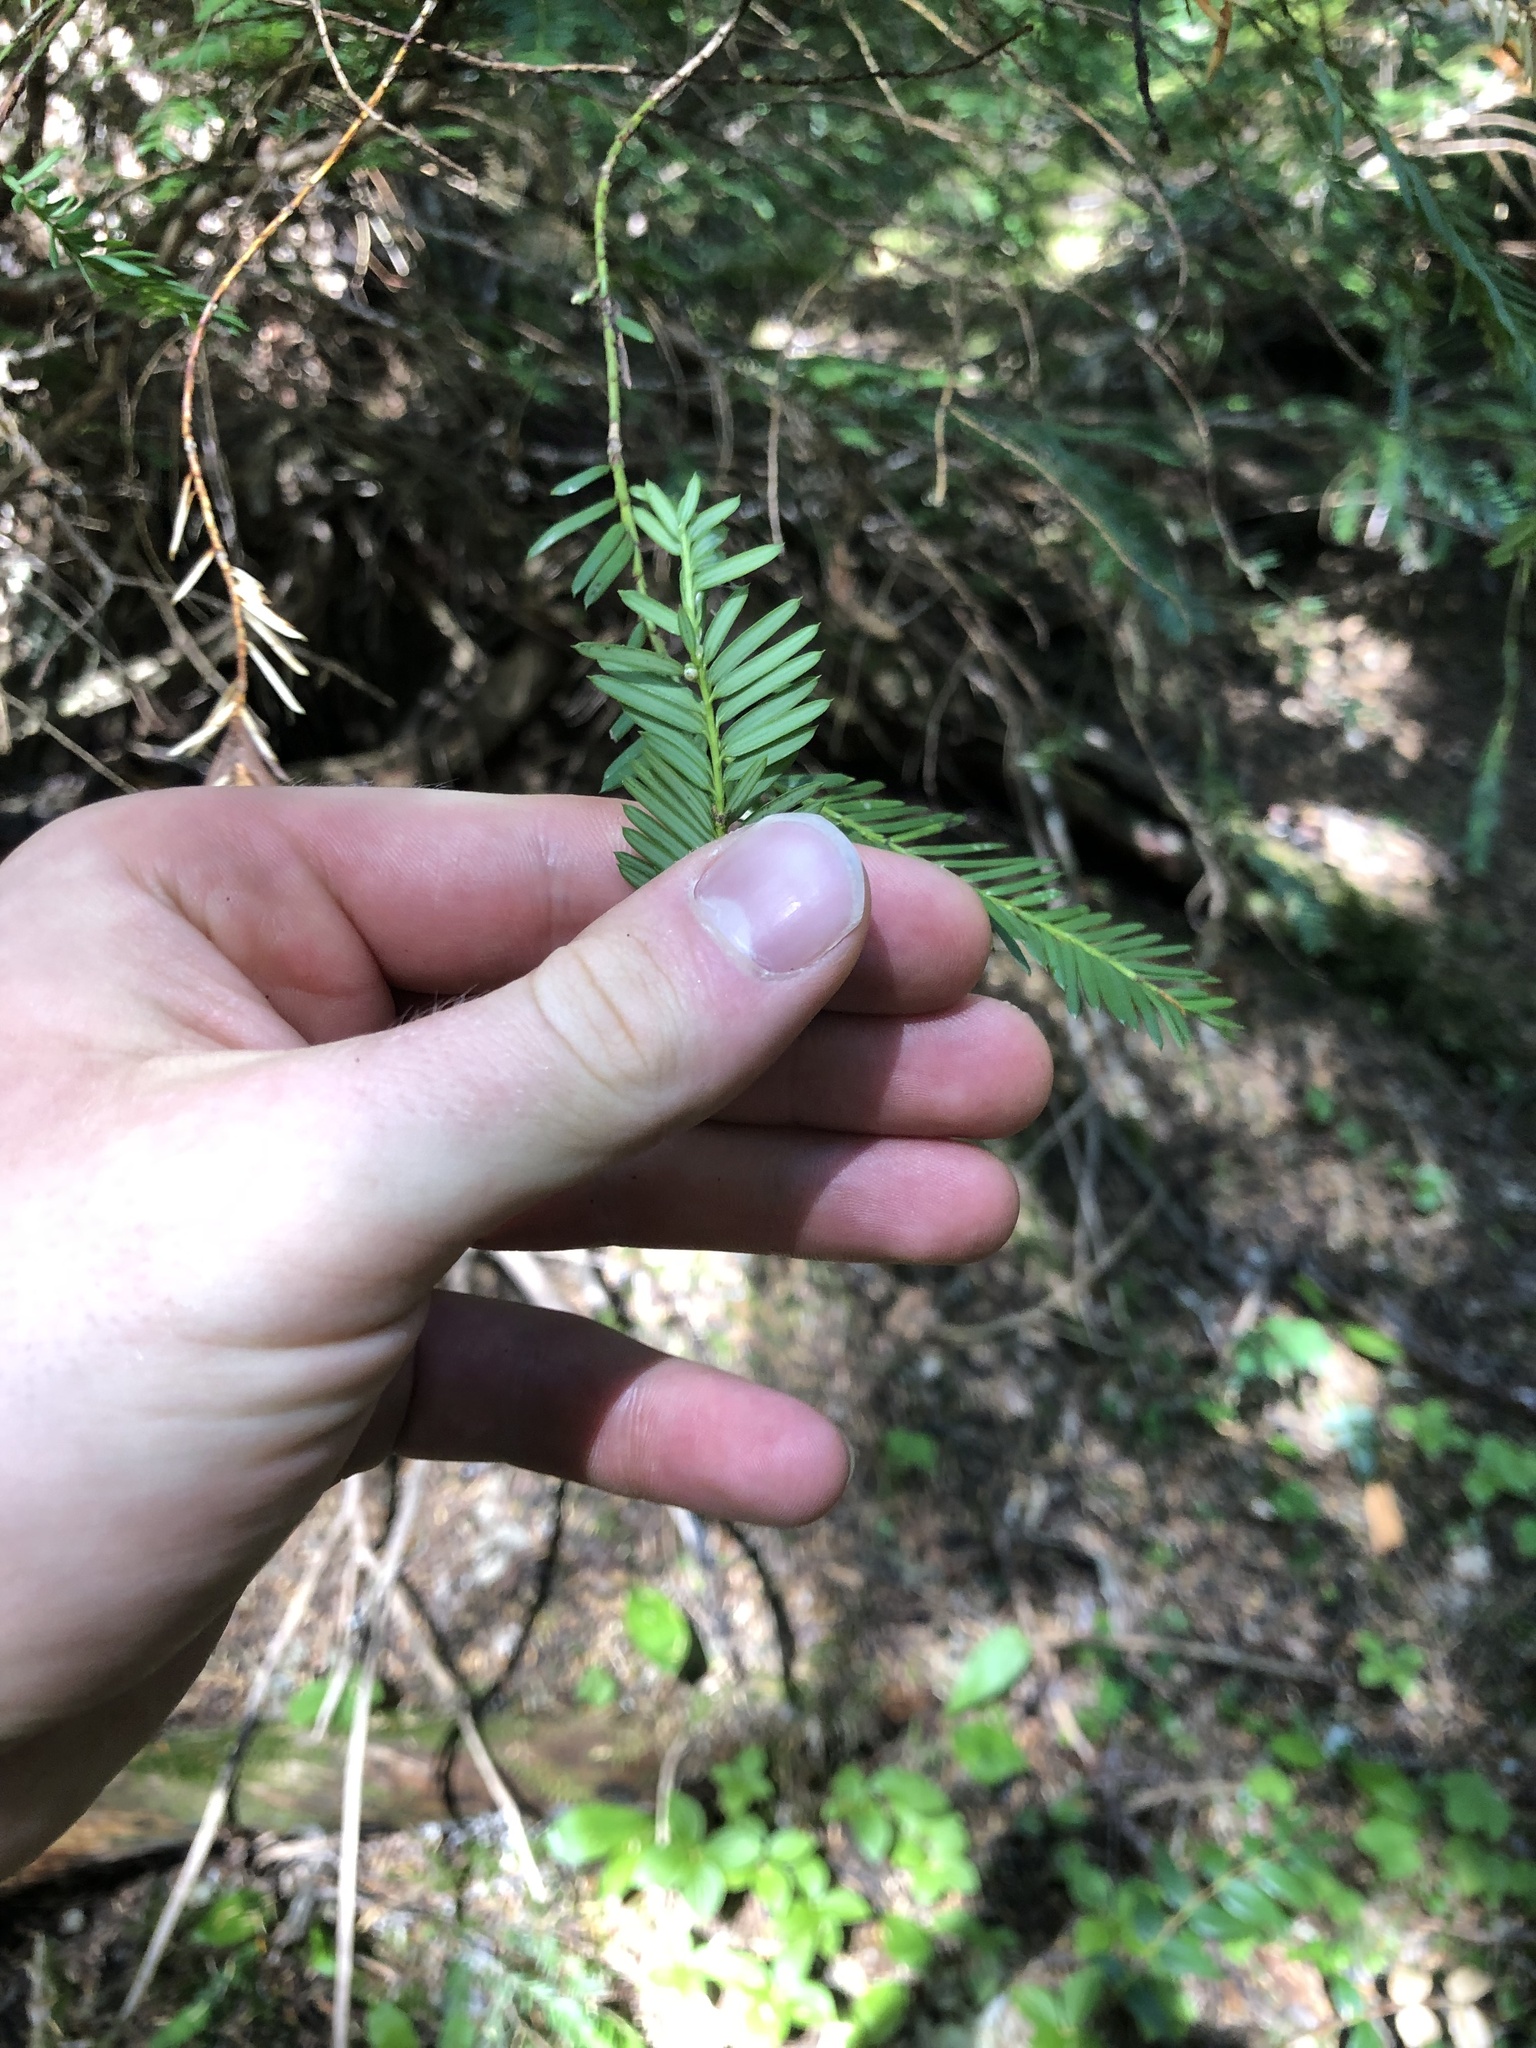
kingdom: Plantae
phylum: Tracheophyta
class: Pinopsida
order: Pinales
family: Taxaceae
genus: Taxus
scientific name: Taxus brevifolia
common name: Pacific yew
